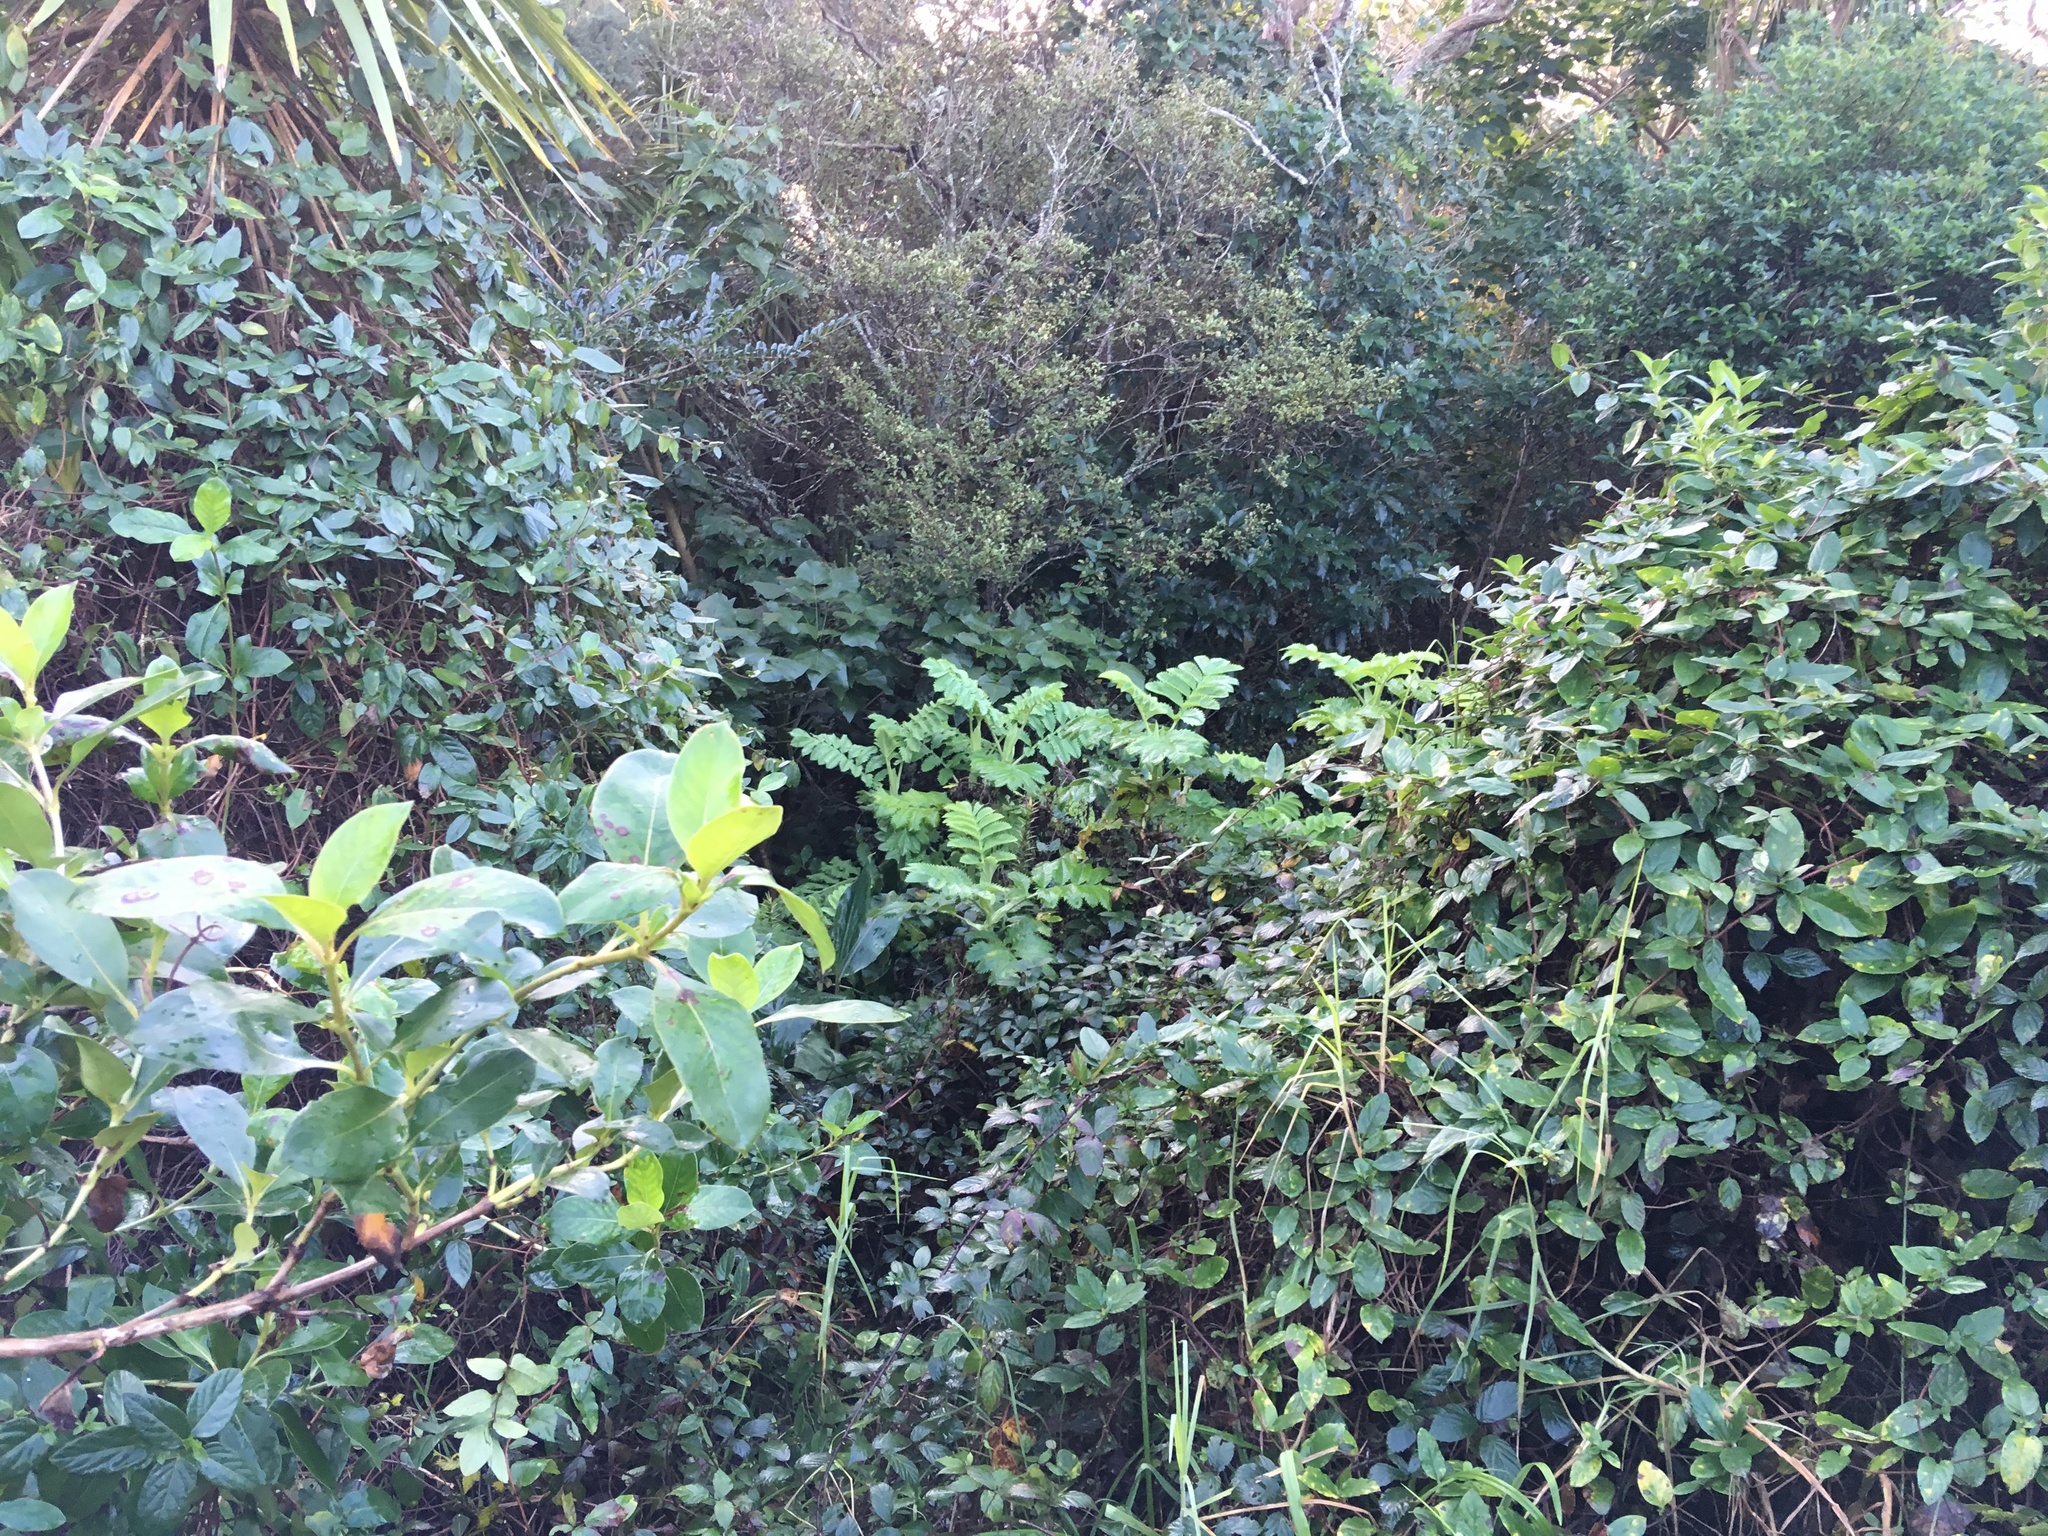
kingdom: Plantae
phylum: Tracheophyta
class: Magnoliopsida
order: Geraniales
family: Melianthaceae
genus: Melianthus
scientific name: Melianthus major
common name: Honey-flower
